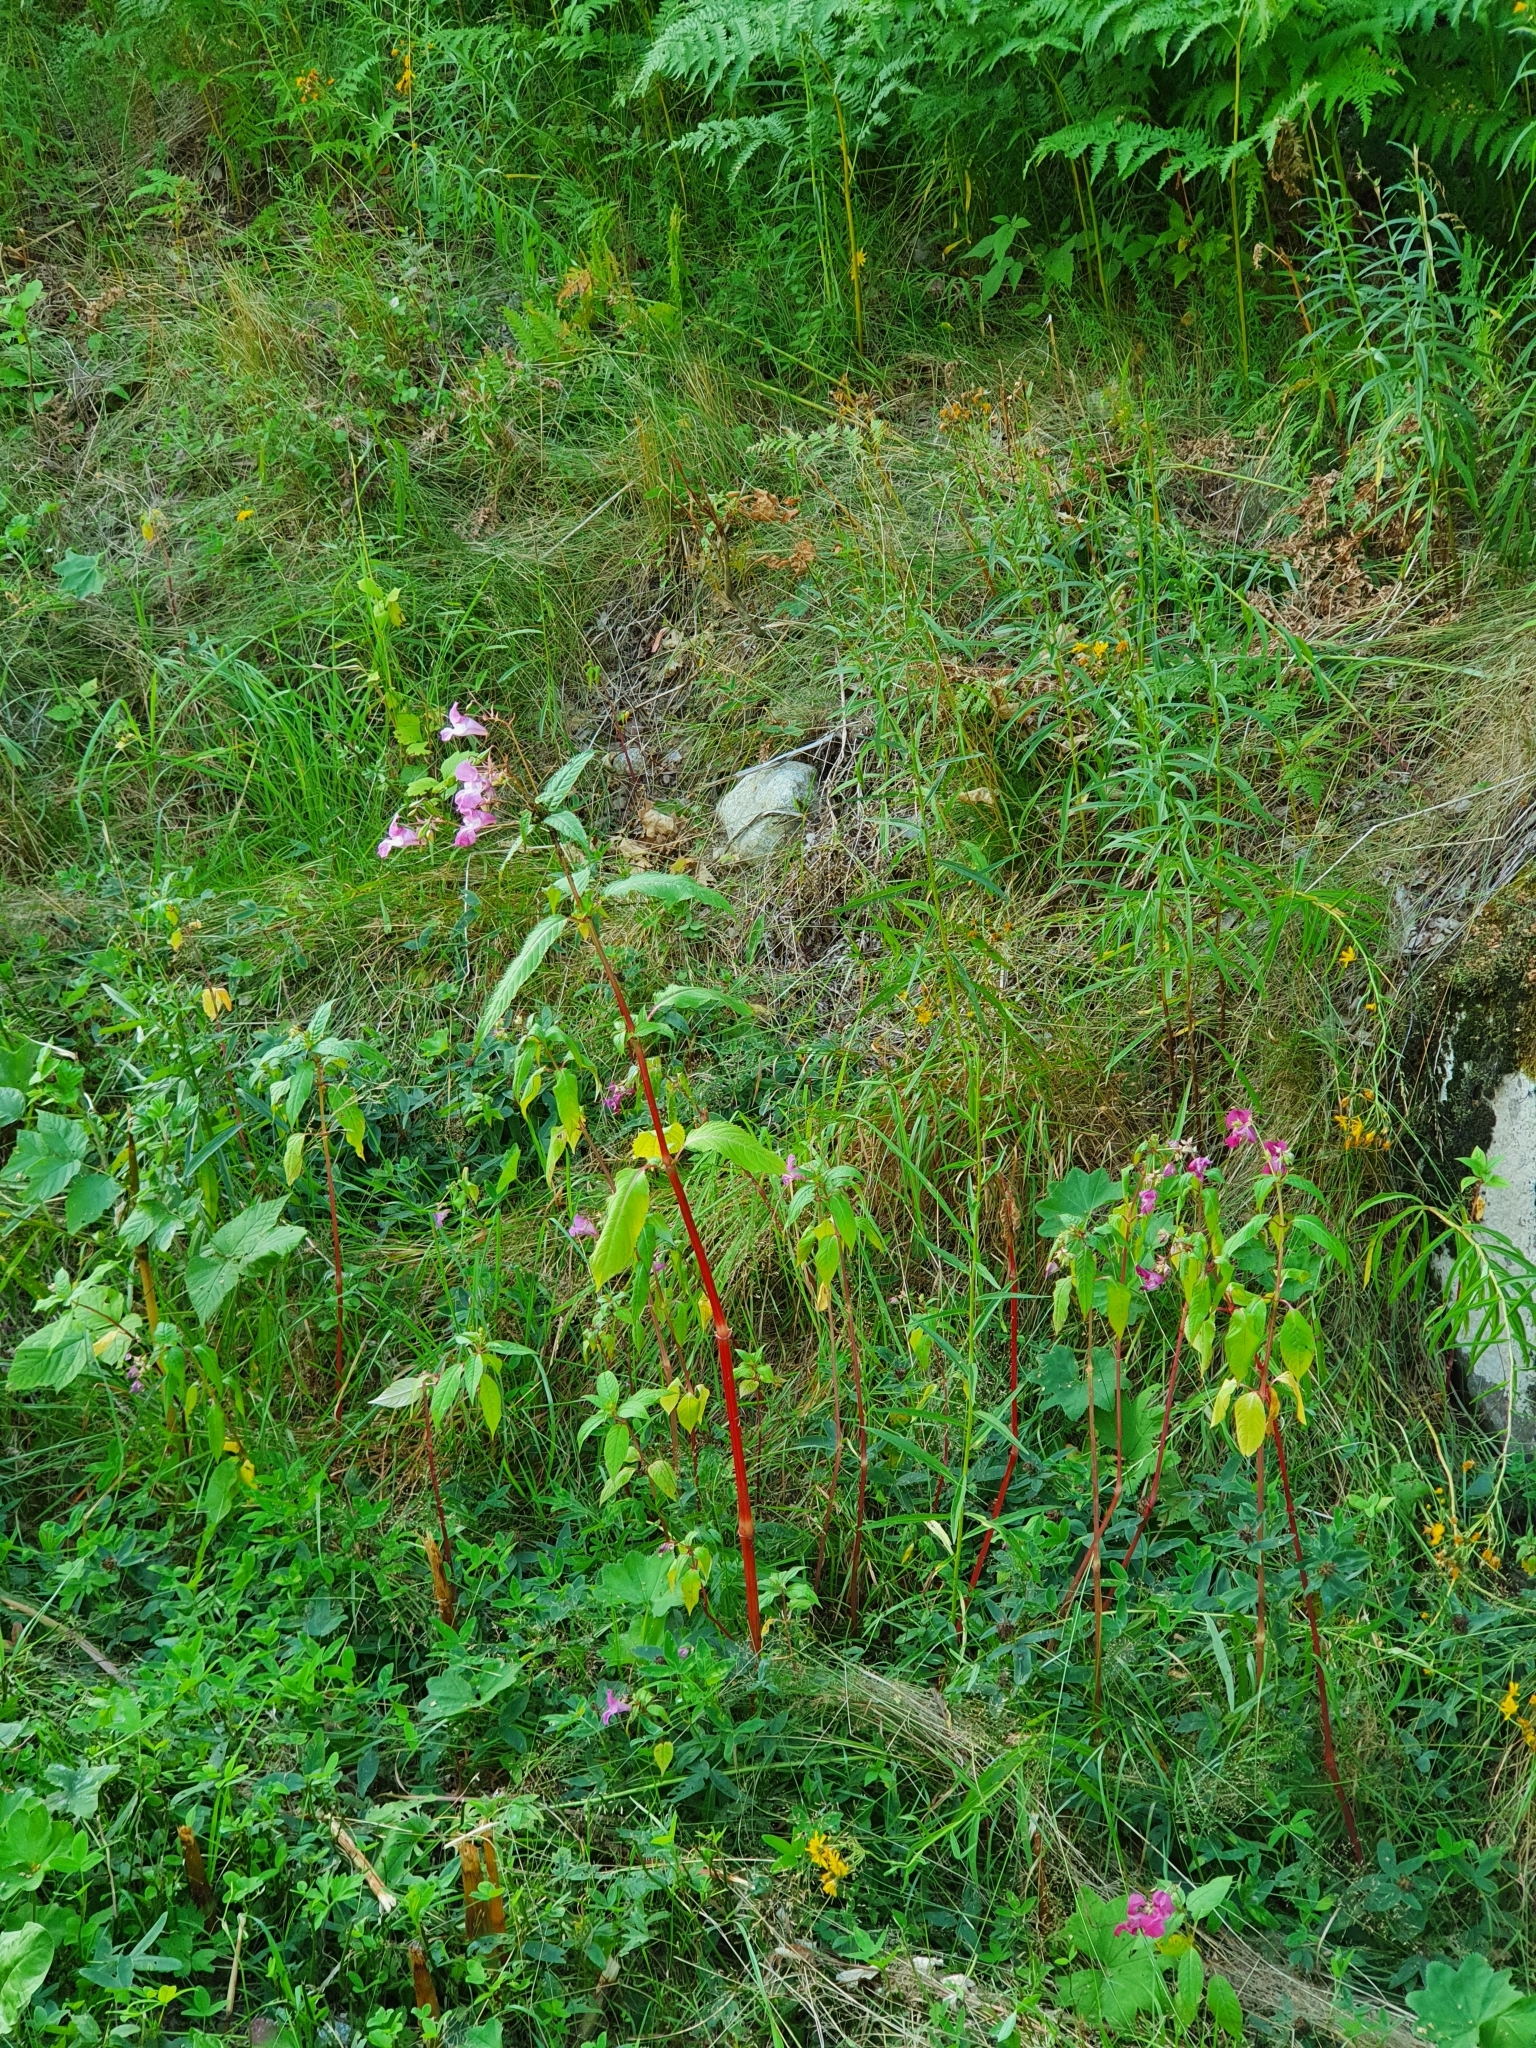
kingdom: Plantae
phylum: Tracheophyta
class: Magnoliopsida
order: Ericales
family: Balsaminaceae
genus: Impatiens
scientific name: Impatiens glandulifera
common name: Himalayan balsam
